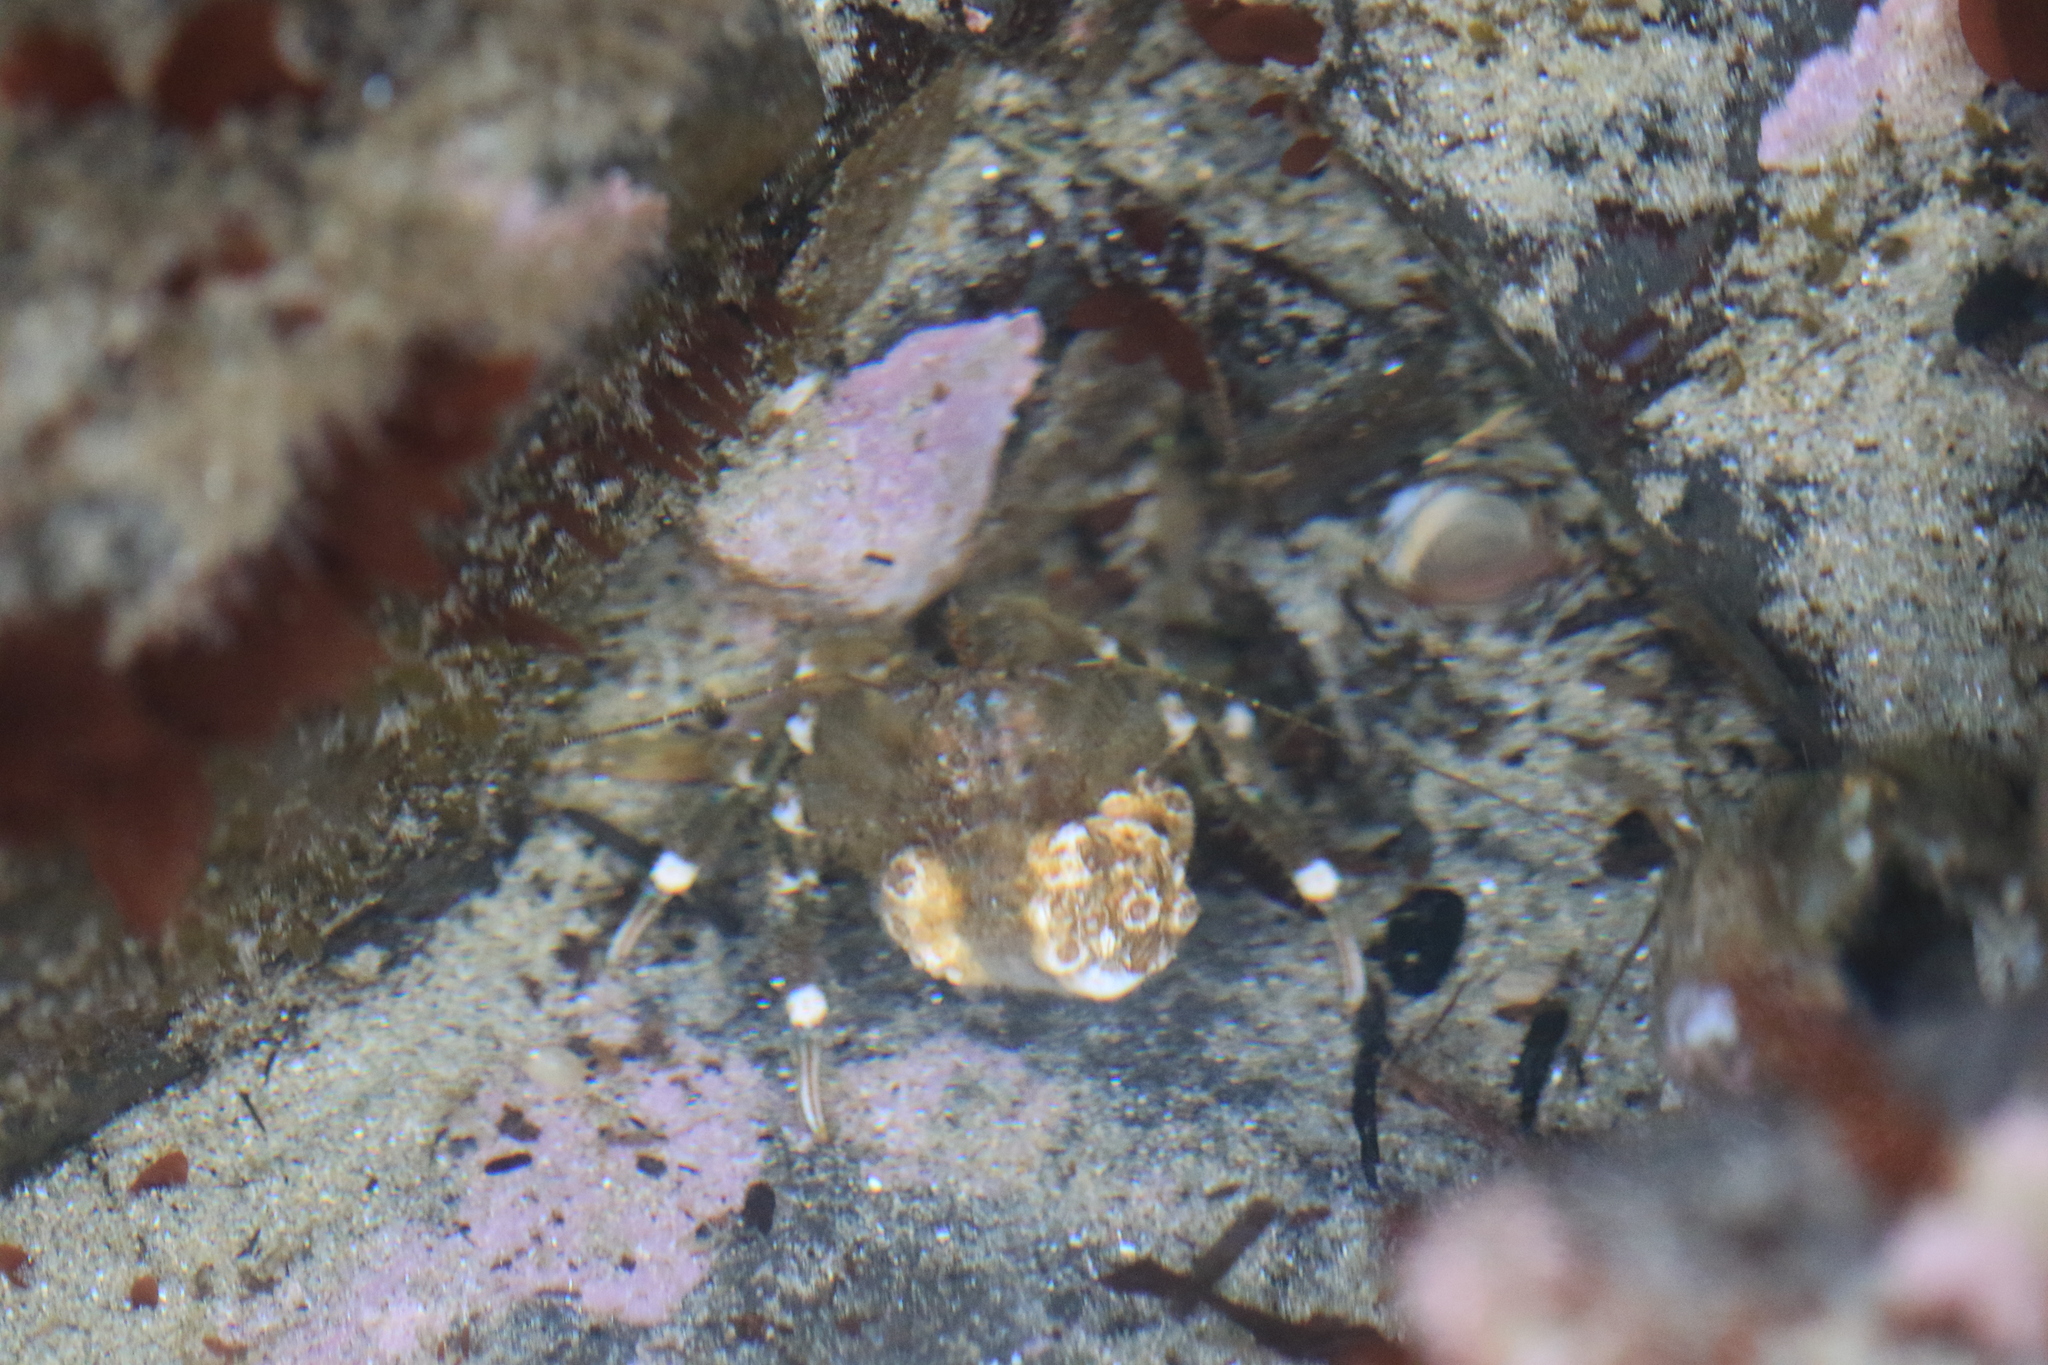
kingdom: Animalia
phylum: Arthropoda
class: Malacostraca
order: Decapoda
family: Paguridae
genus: Pagurus
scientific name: Pagurus hirsutiusculus
